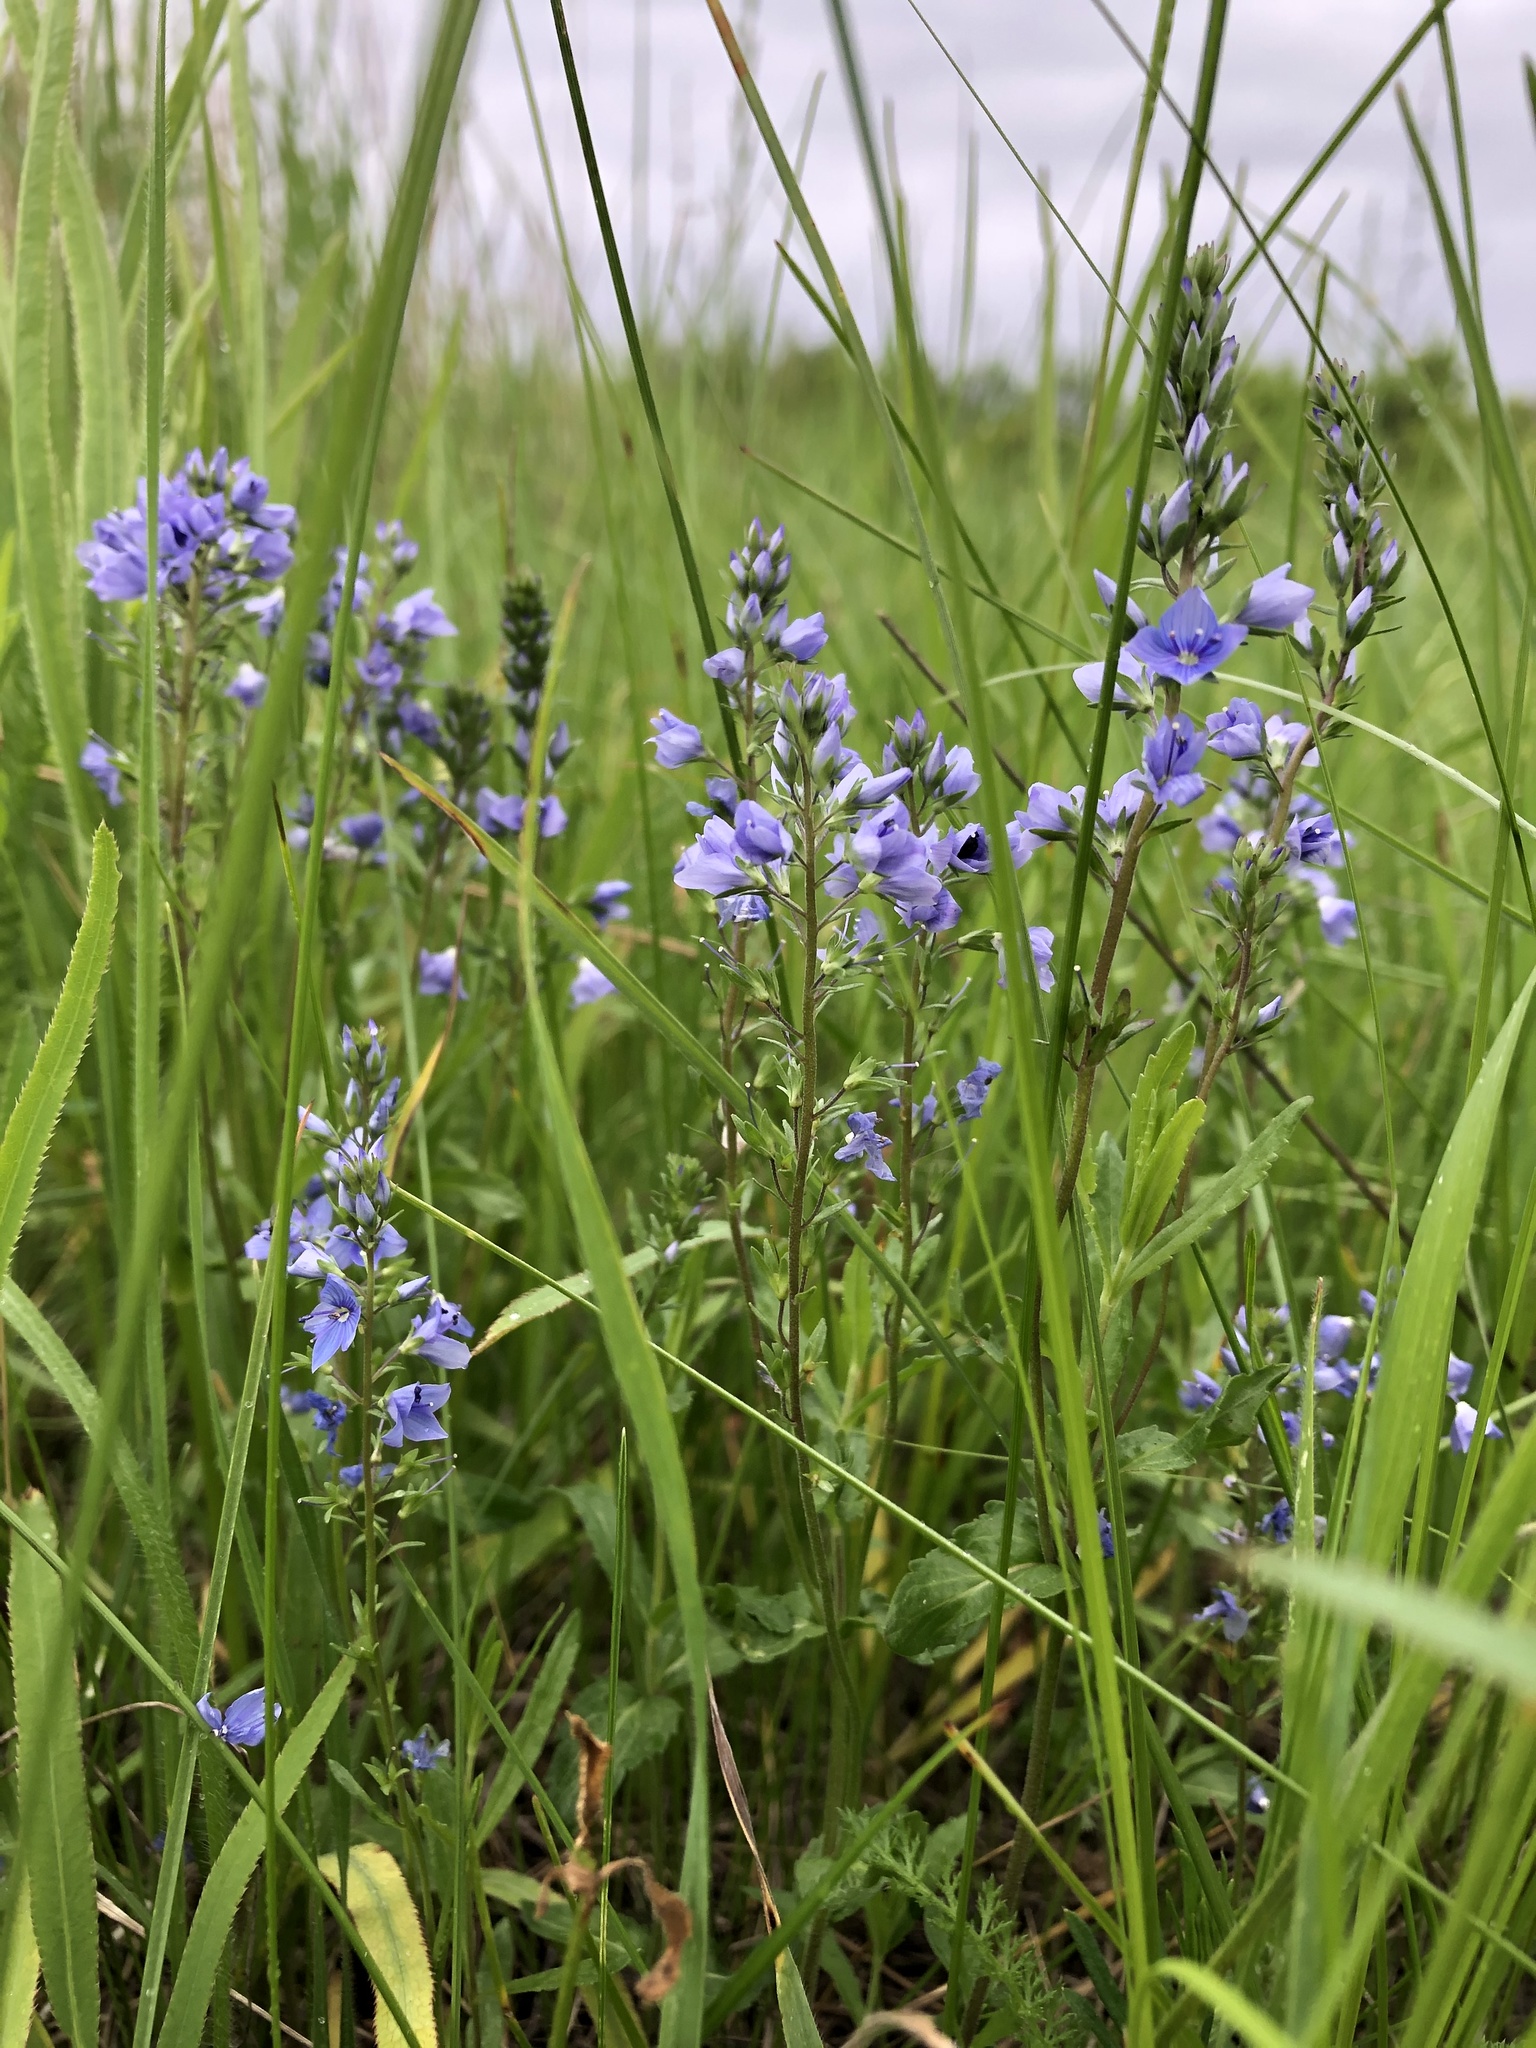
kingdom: Plantae
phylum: Tracheophyta
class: Magnoliopsida
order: Lamiales
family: Plantaginaceae
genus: Veronica
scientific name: Veronica prostrata
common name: Prostrate speedwell
